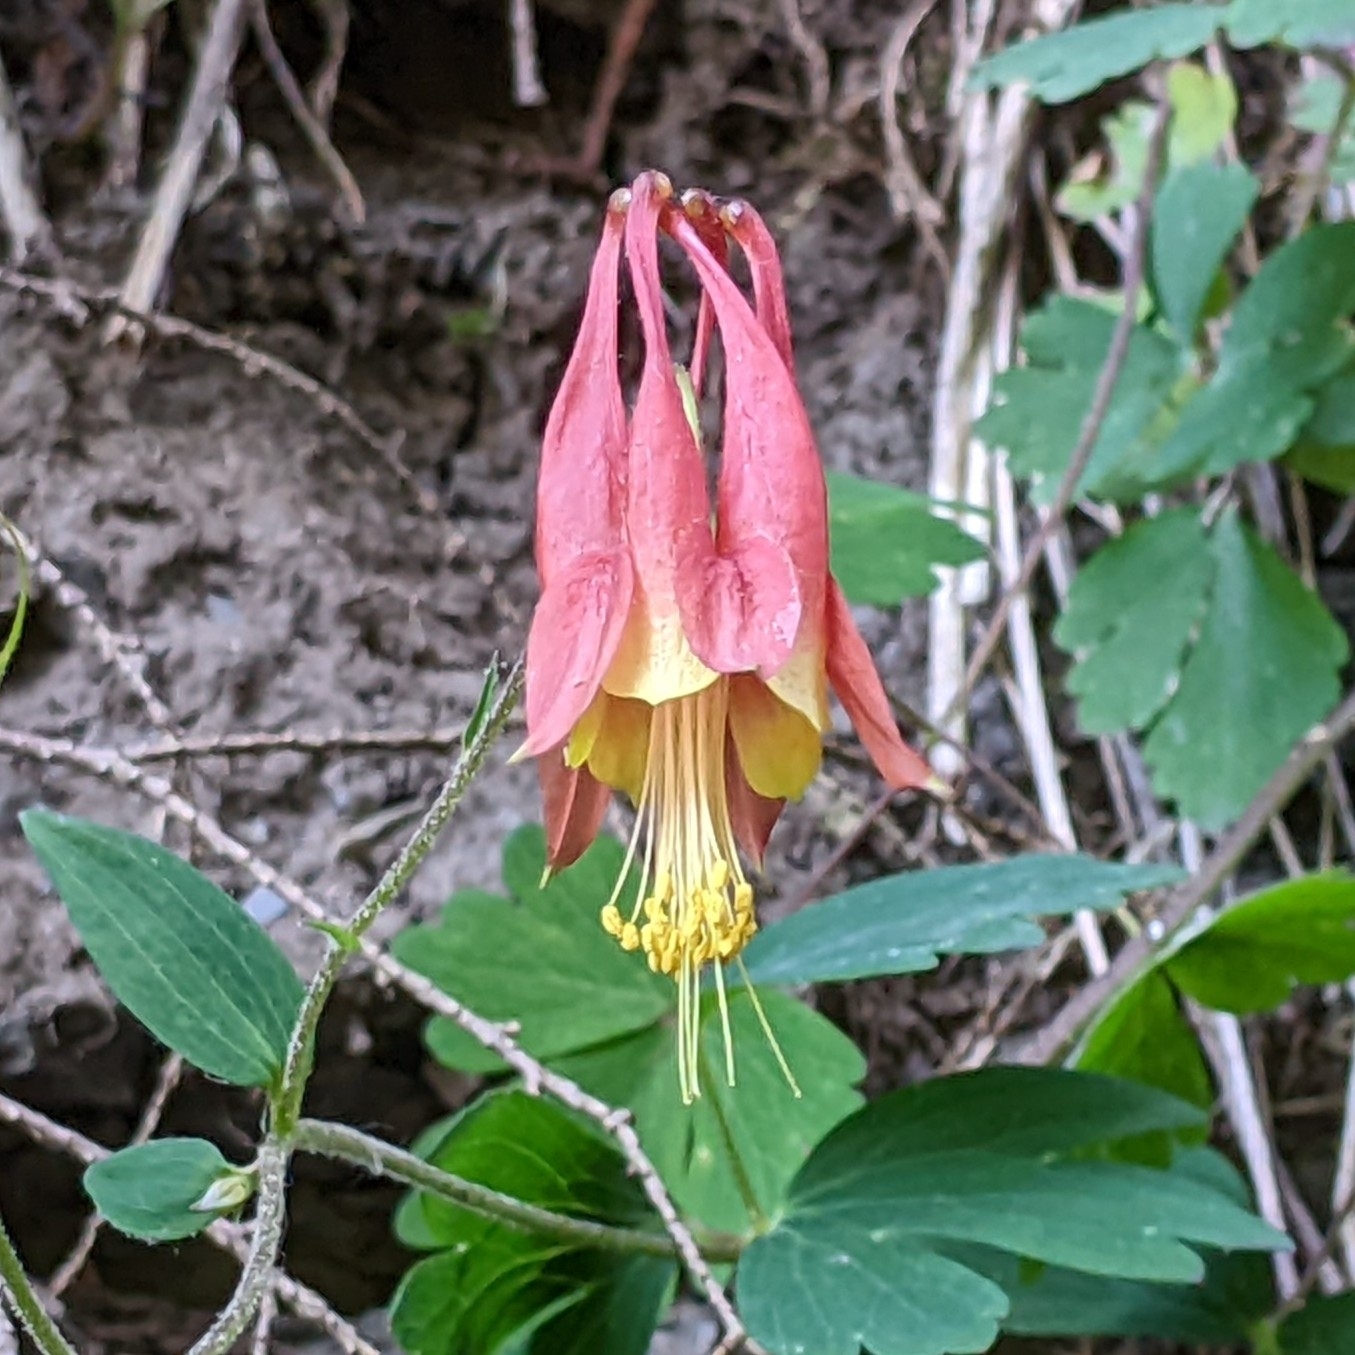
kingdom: Plantae
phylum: Tracheophyta
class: Magnoliopsida
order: Ranunculales
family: Ranunculaceae
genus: Aquilegia
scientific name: Aquilegia canadensis
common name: American columbine
